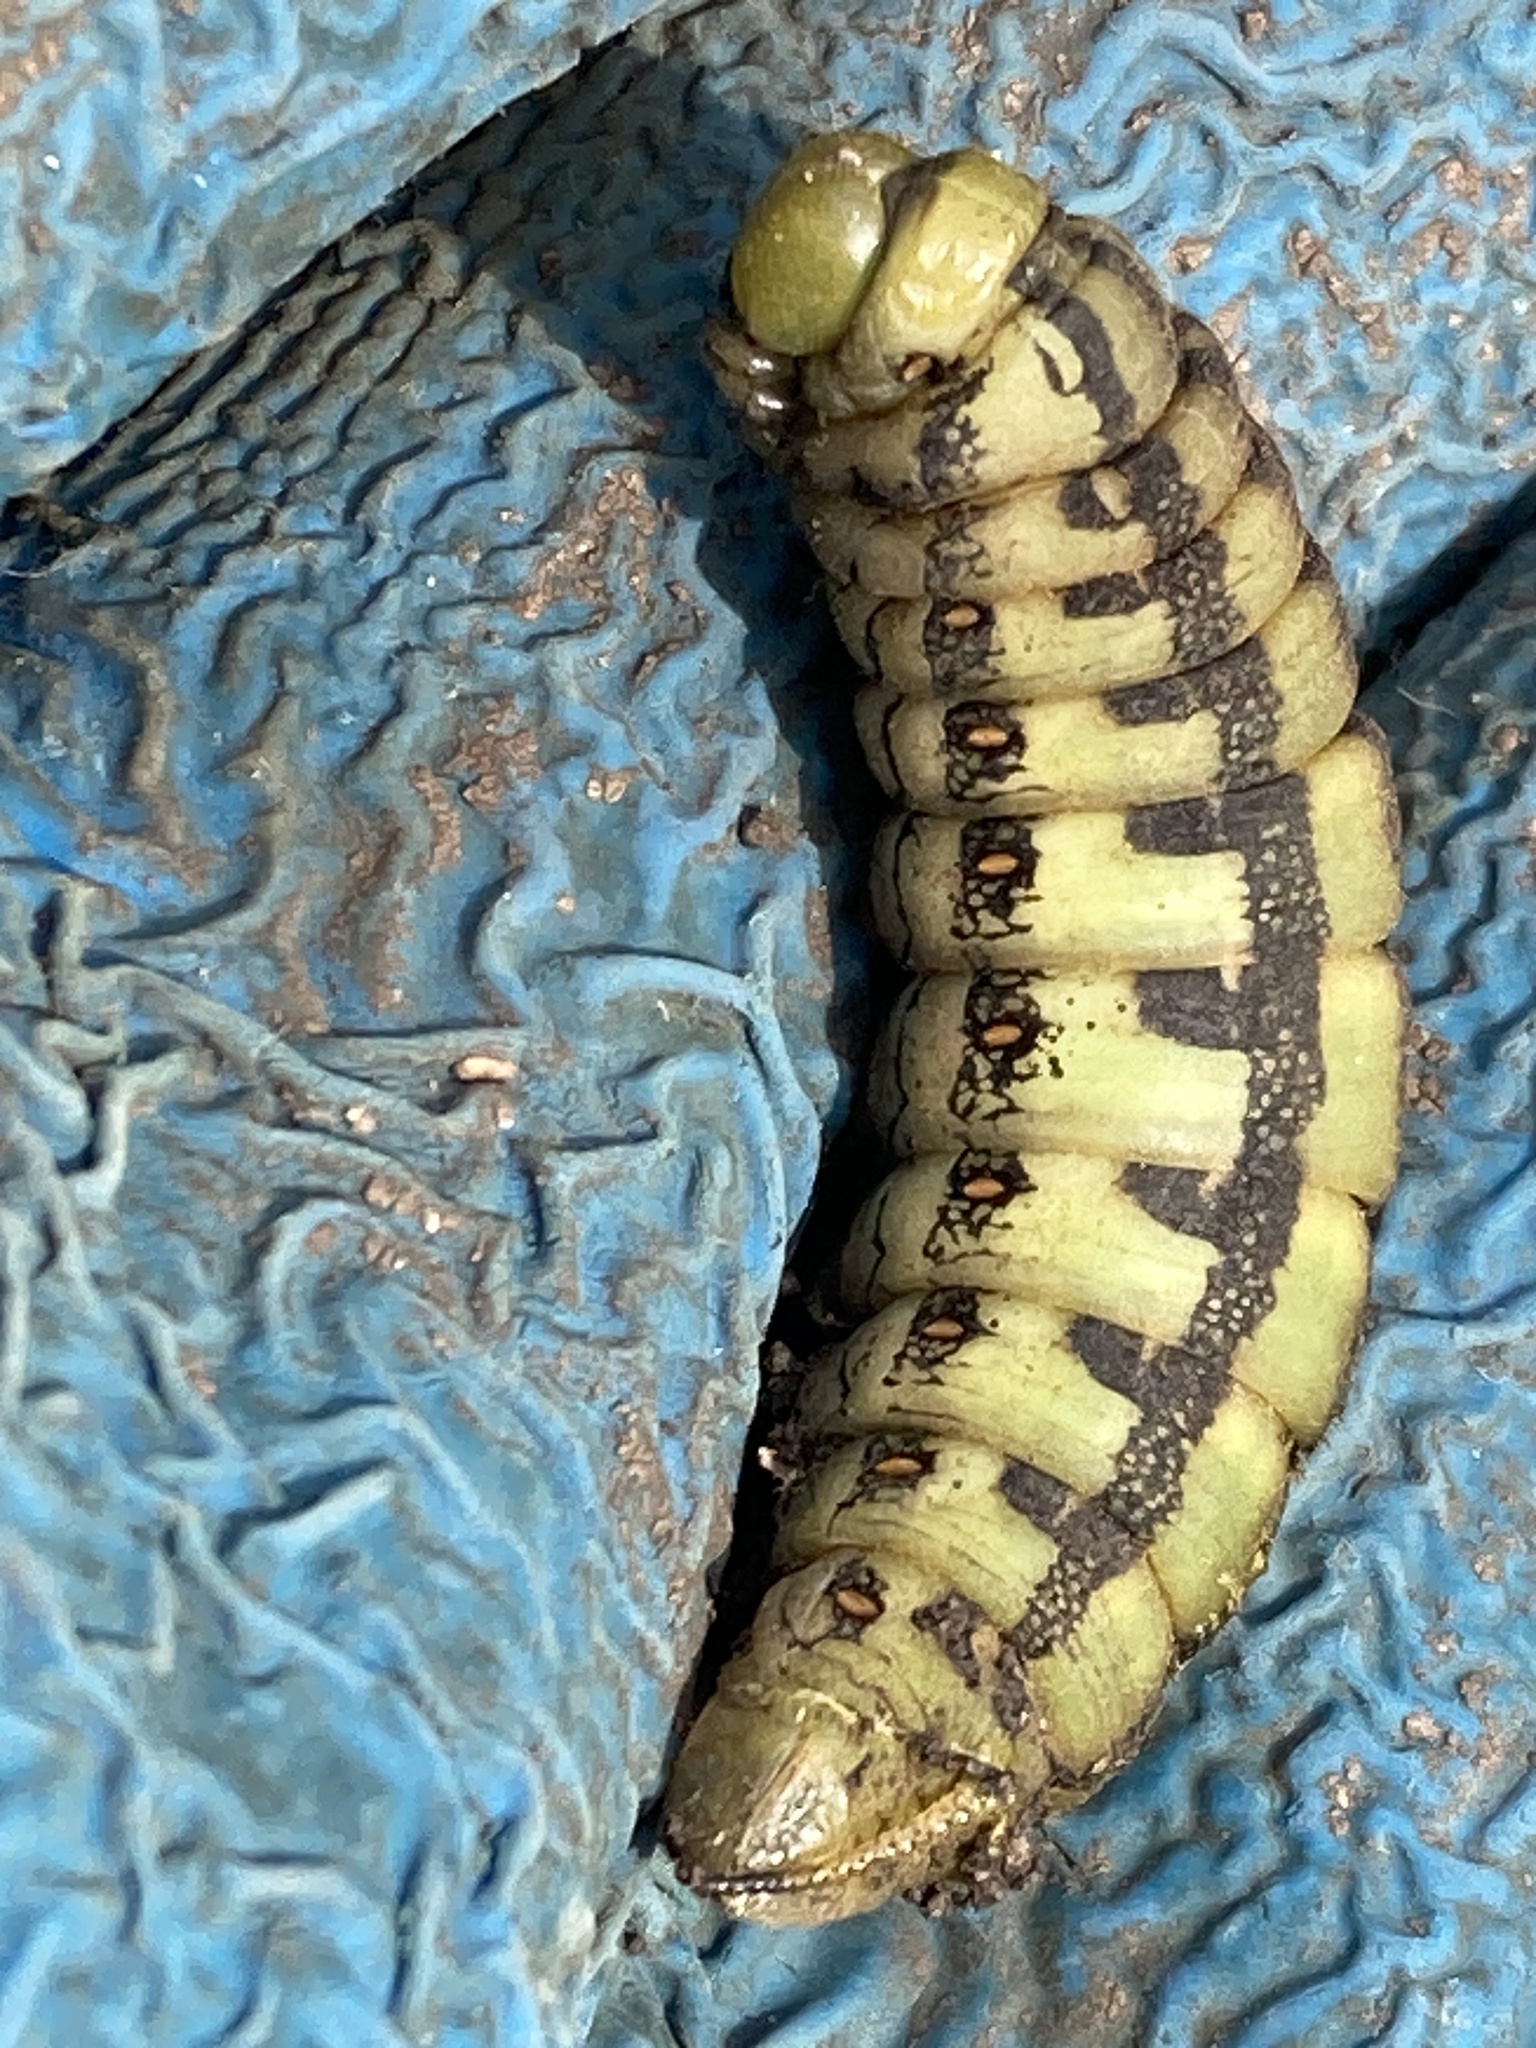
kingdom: Animalia
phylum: Arthropoda
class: Insecta
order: Lepidoptera
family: Sphingidae
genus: Hyles
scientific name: Hyles lineata
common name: White-lined sphinx
